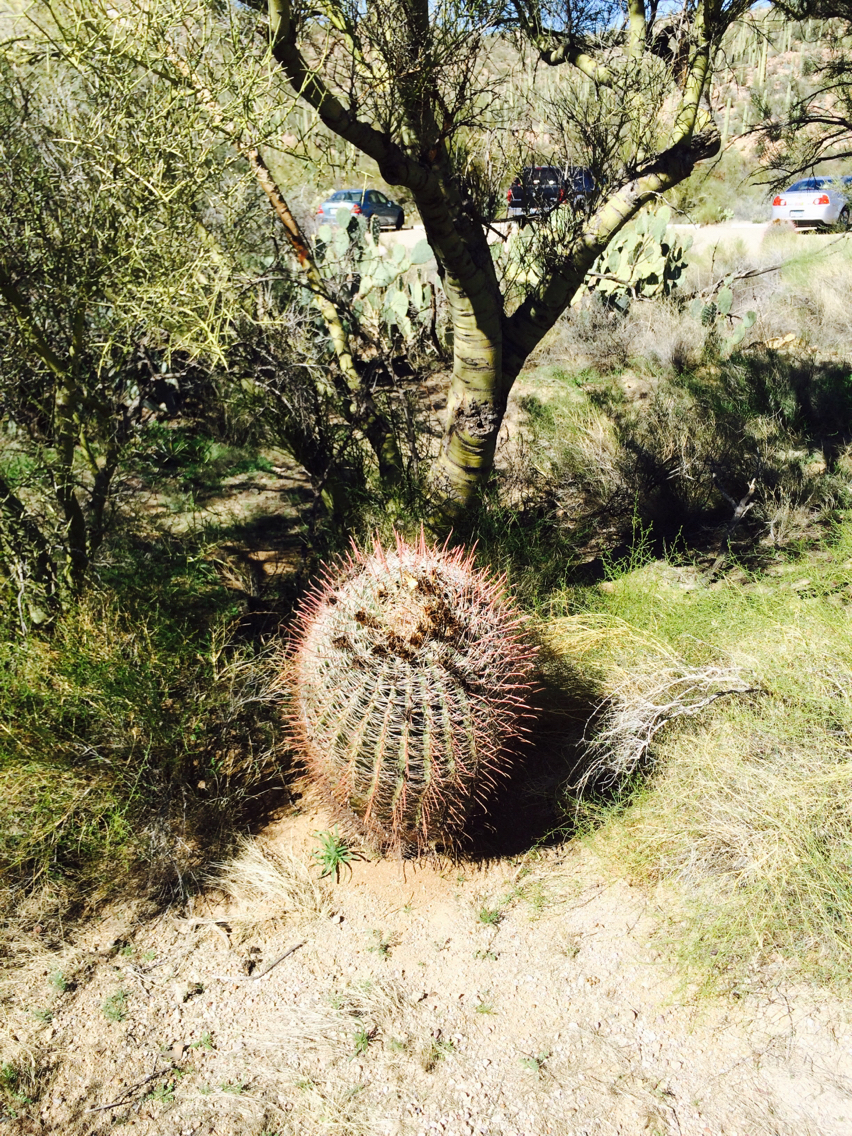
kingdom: Plantae
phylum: Tracheophyta
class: Magnoliopsida
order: Caryophyllales
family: Cactaceae
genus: Ferocactus
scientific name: Ferocactus wislizeni
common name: Candy barrel cactus
